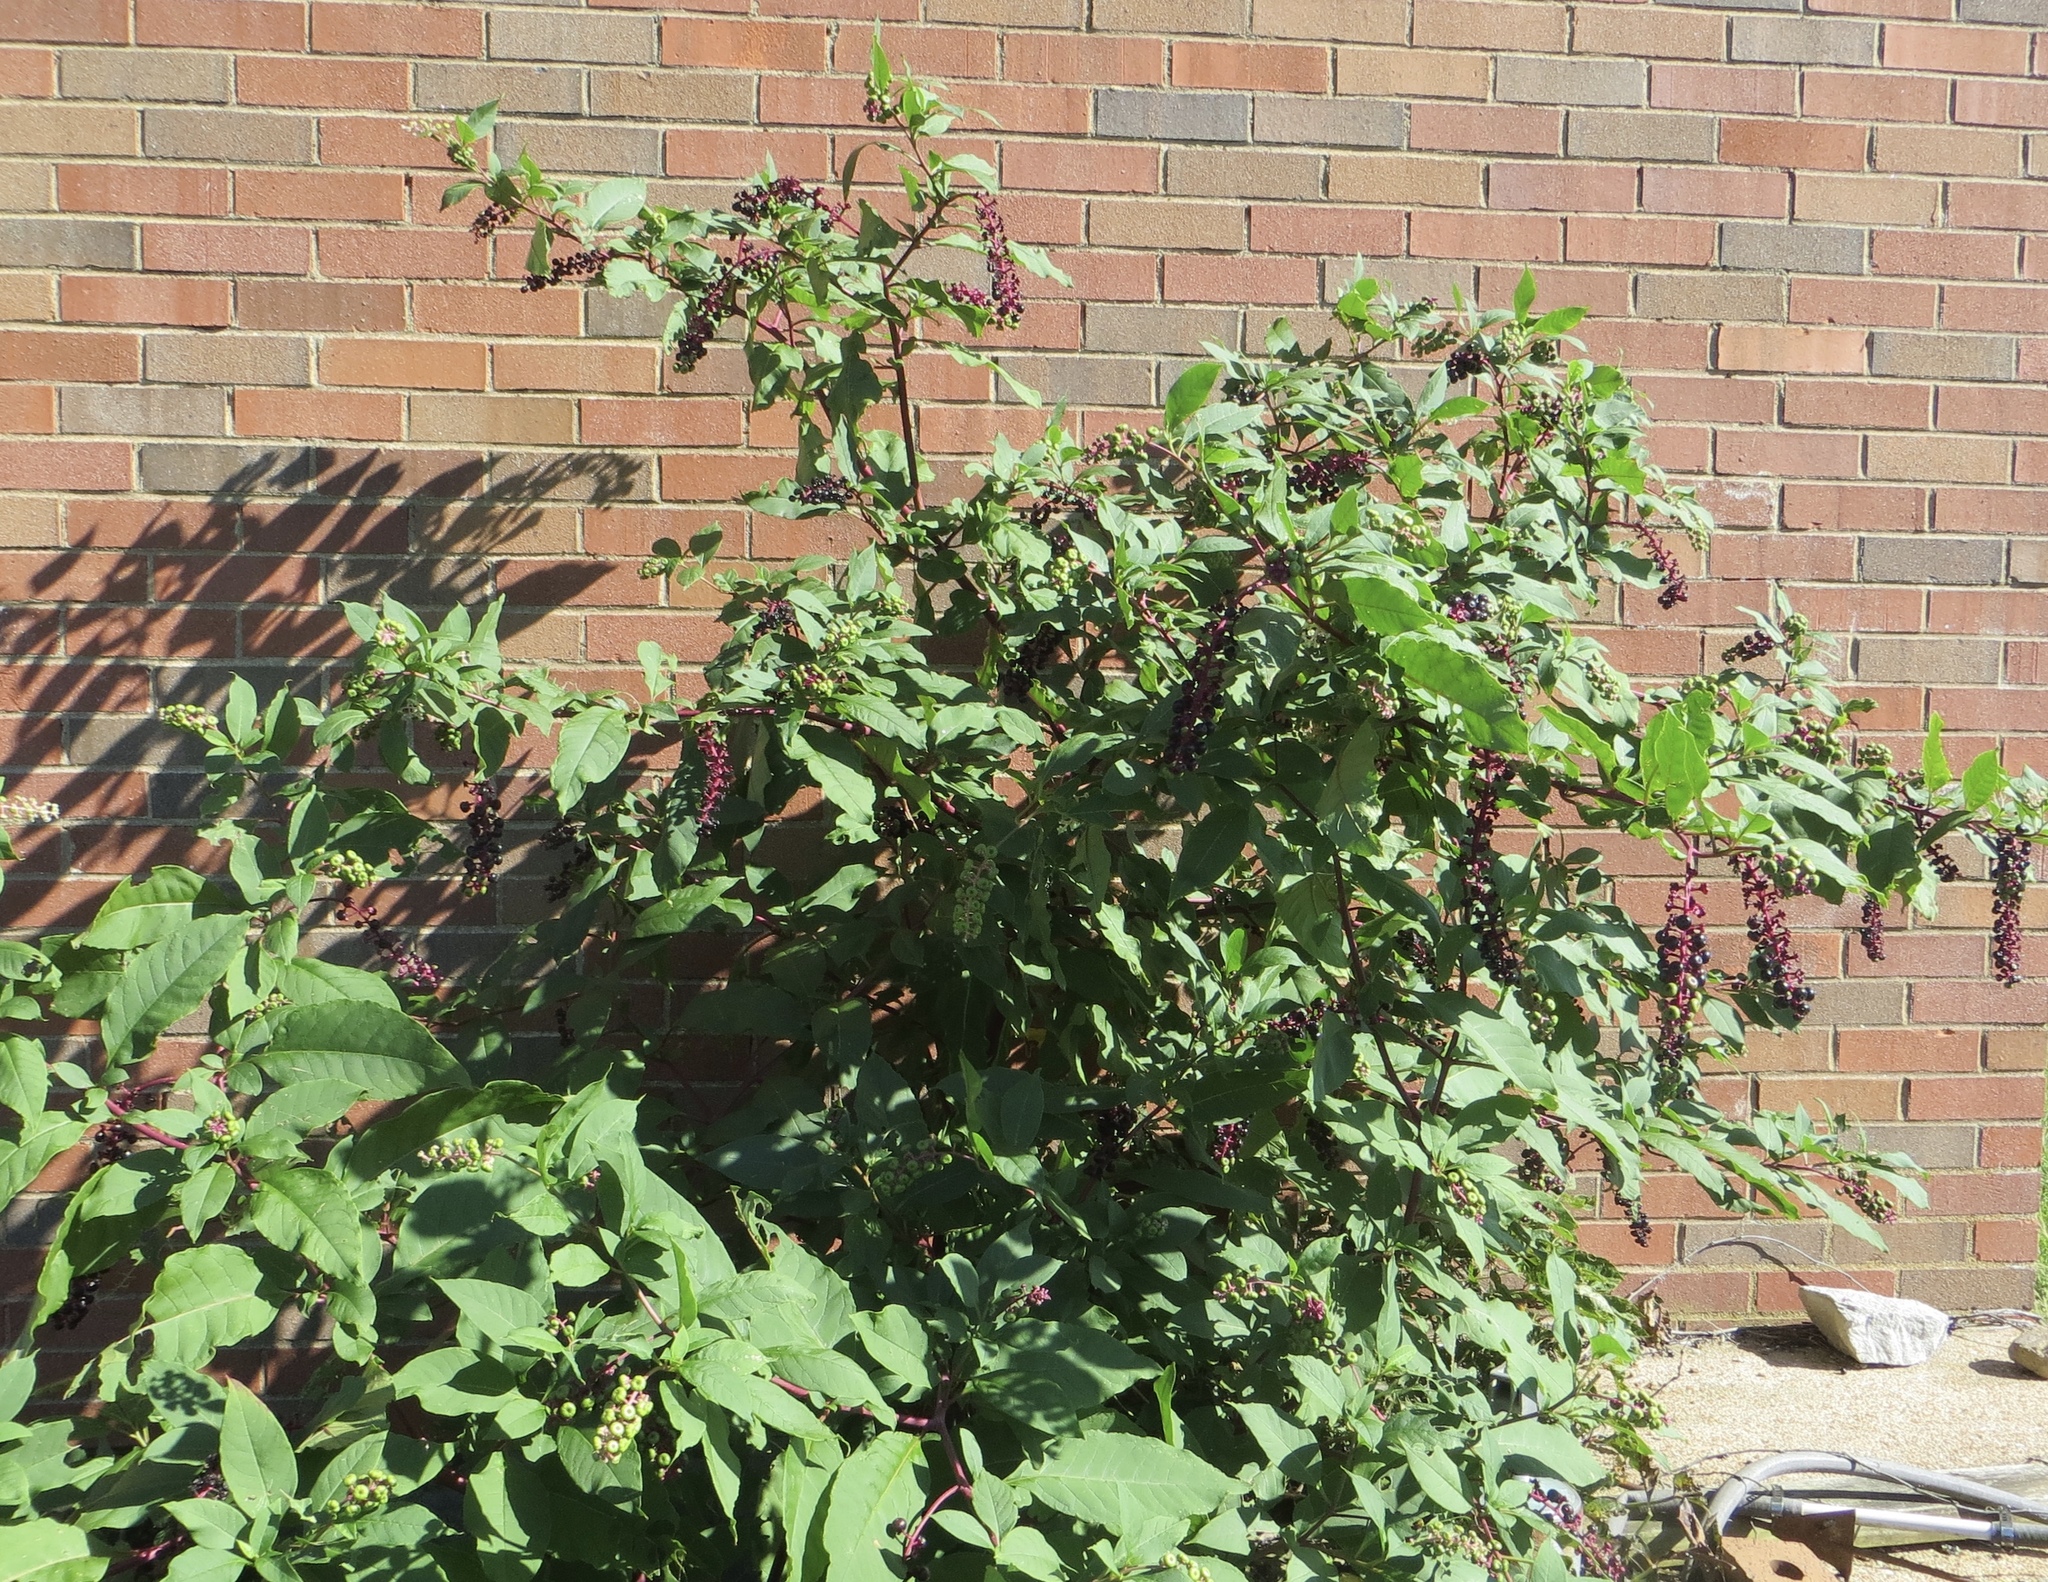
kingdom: Plantae
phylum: Tracheophyta
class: Magnoliopsida
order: Caryophyllales
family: Phytolaccaceae
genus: Phytolacca
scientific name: Phytolacca americana
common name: American pokeweed
